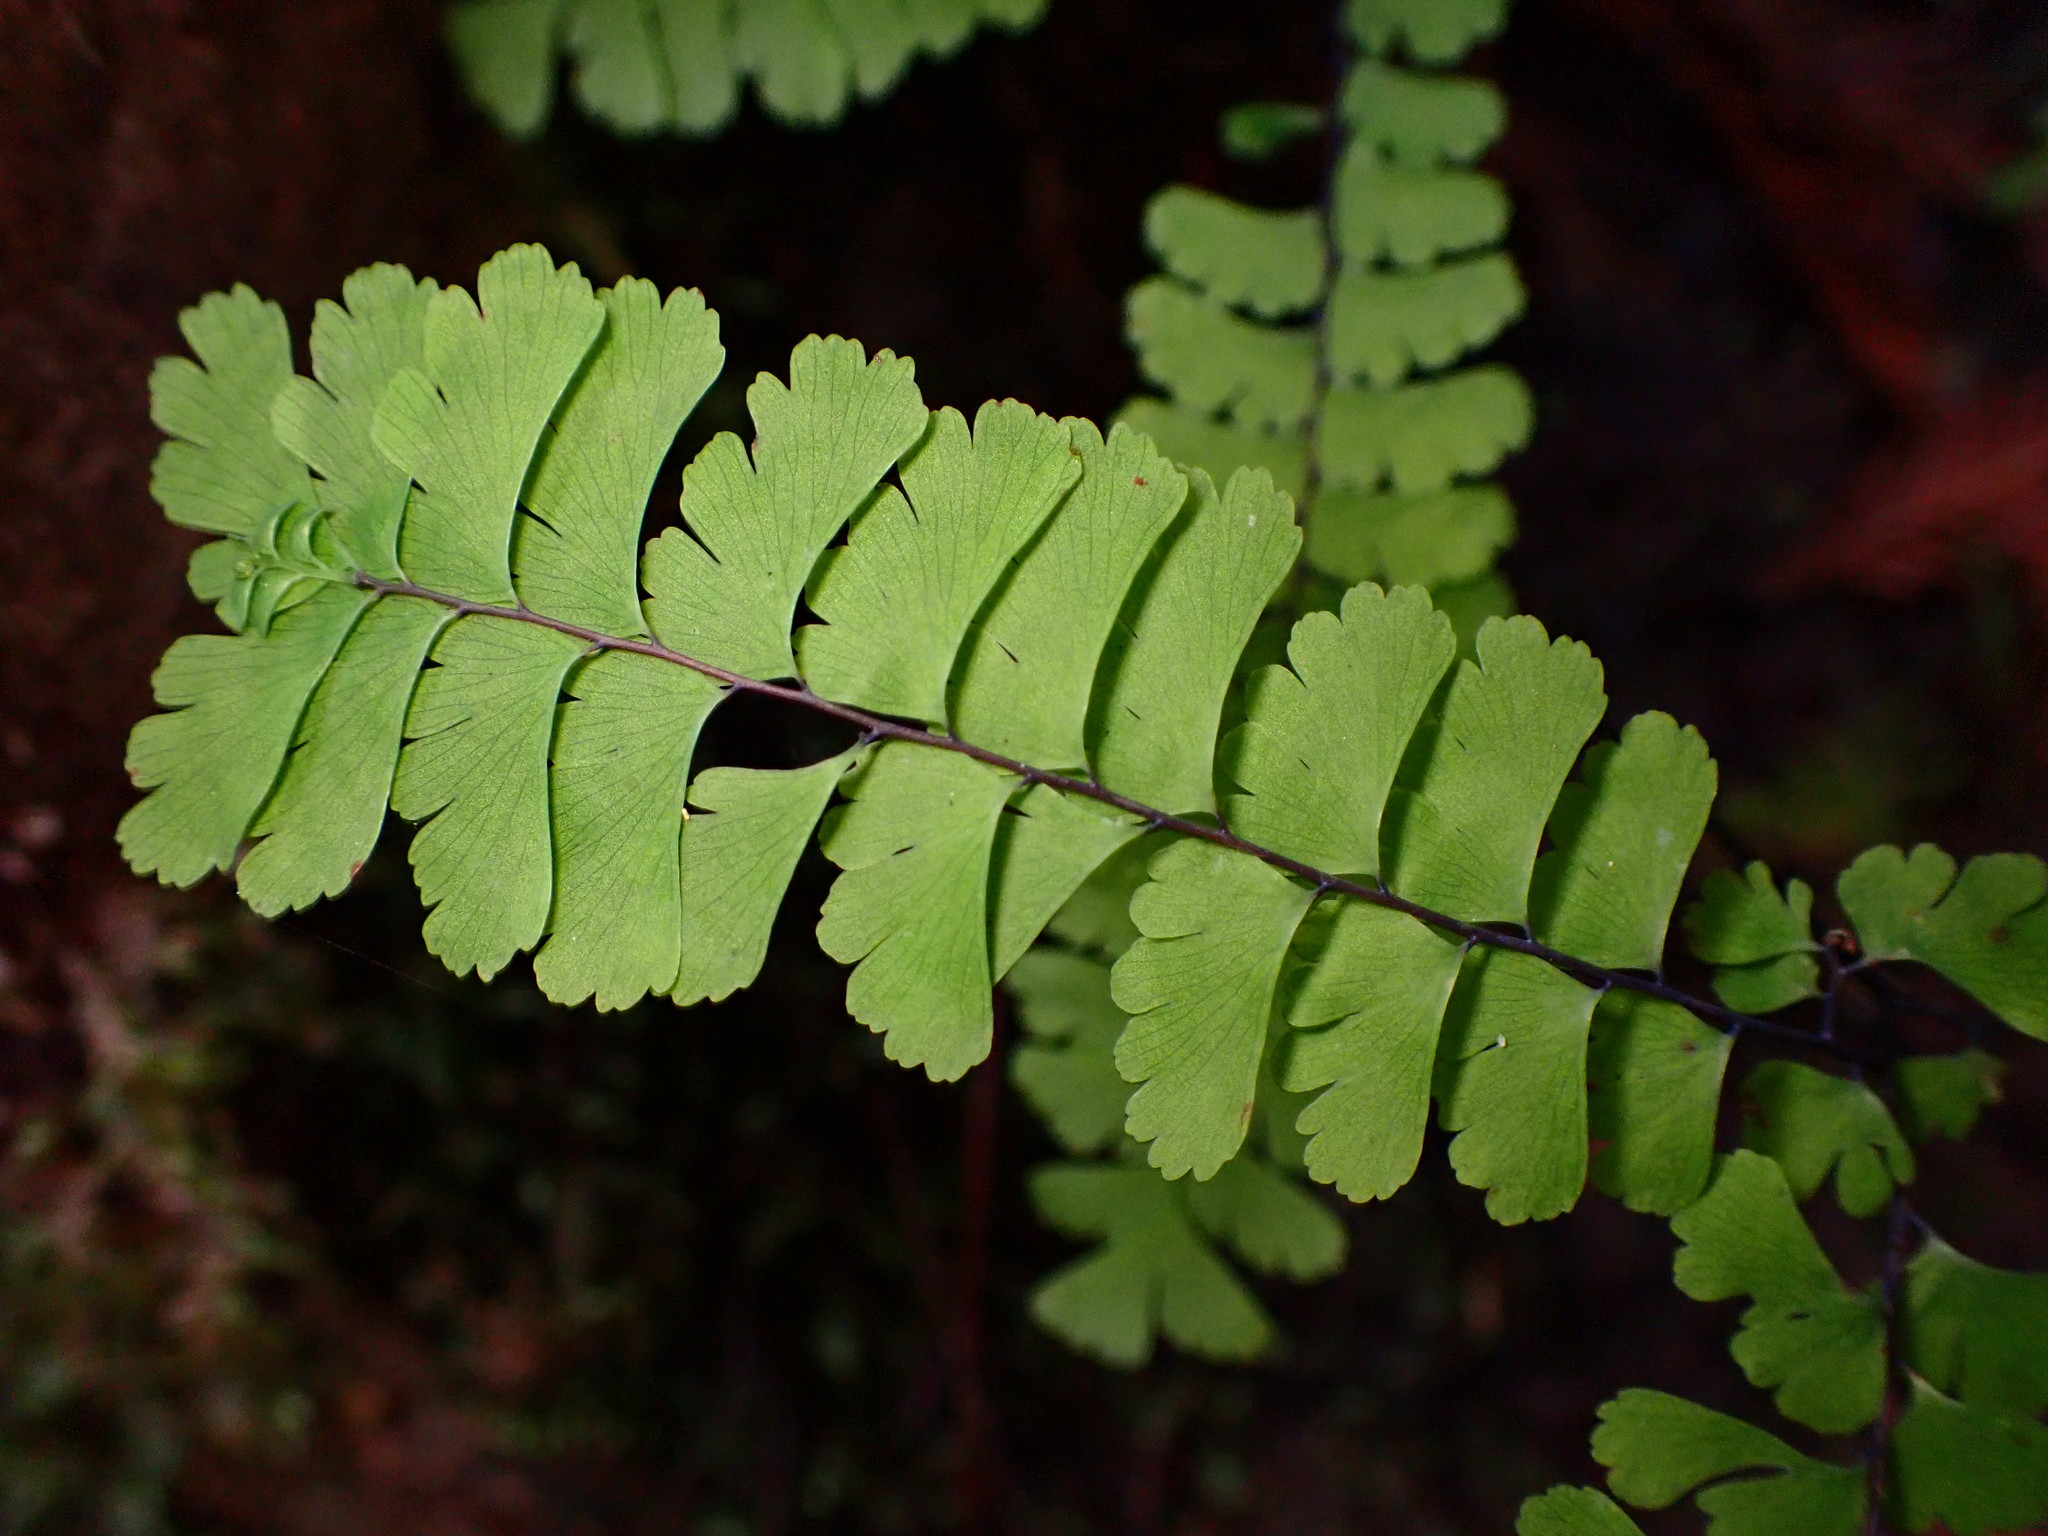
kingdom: Plantae
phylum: Tracheophyta
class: Polypodiopsida
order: Polypodiales
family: Pteridaceae
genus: Adiantum
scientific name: Adiantum aleuticum
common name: Aleutian maidenhair fern
